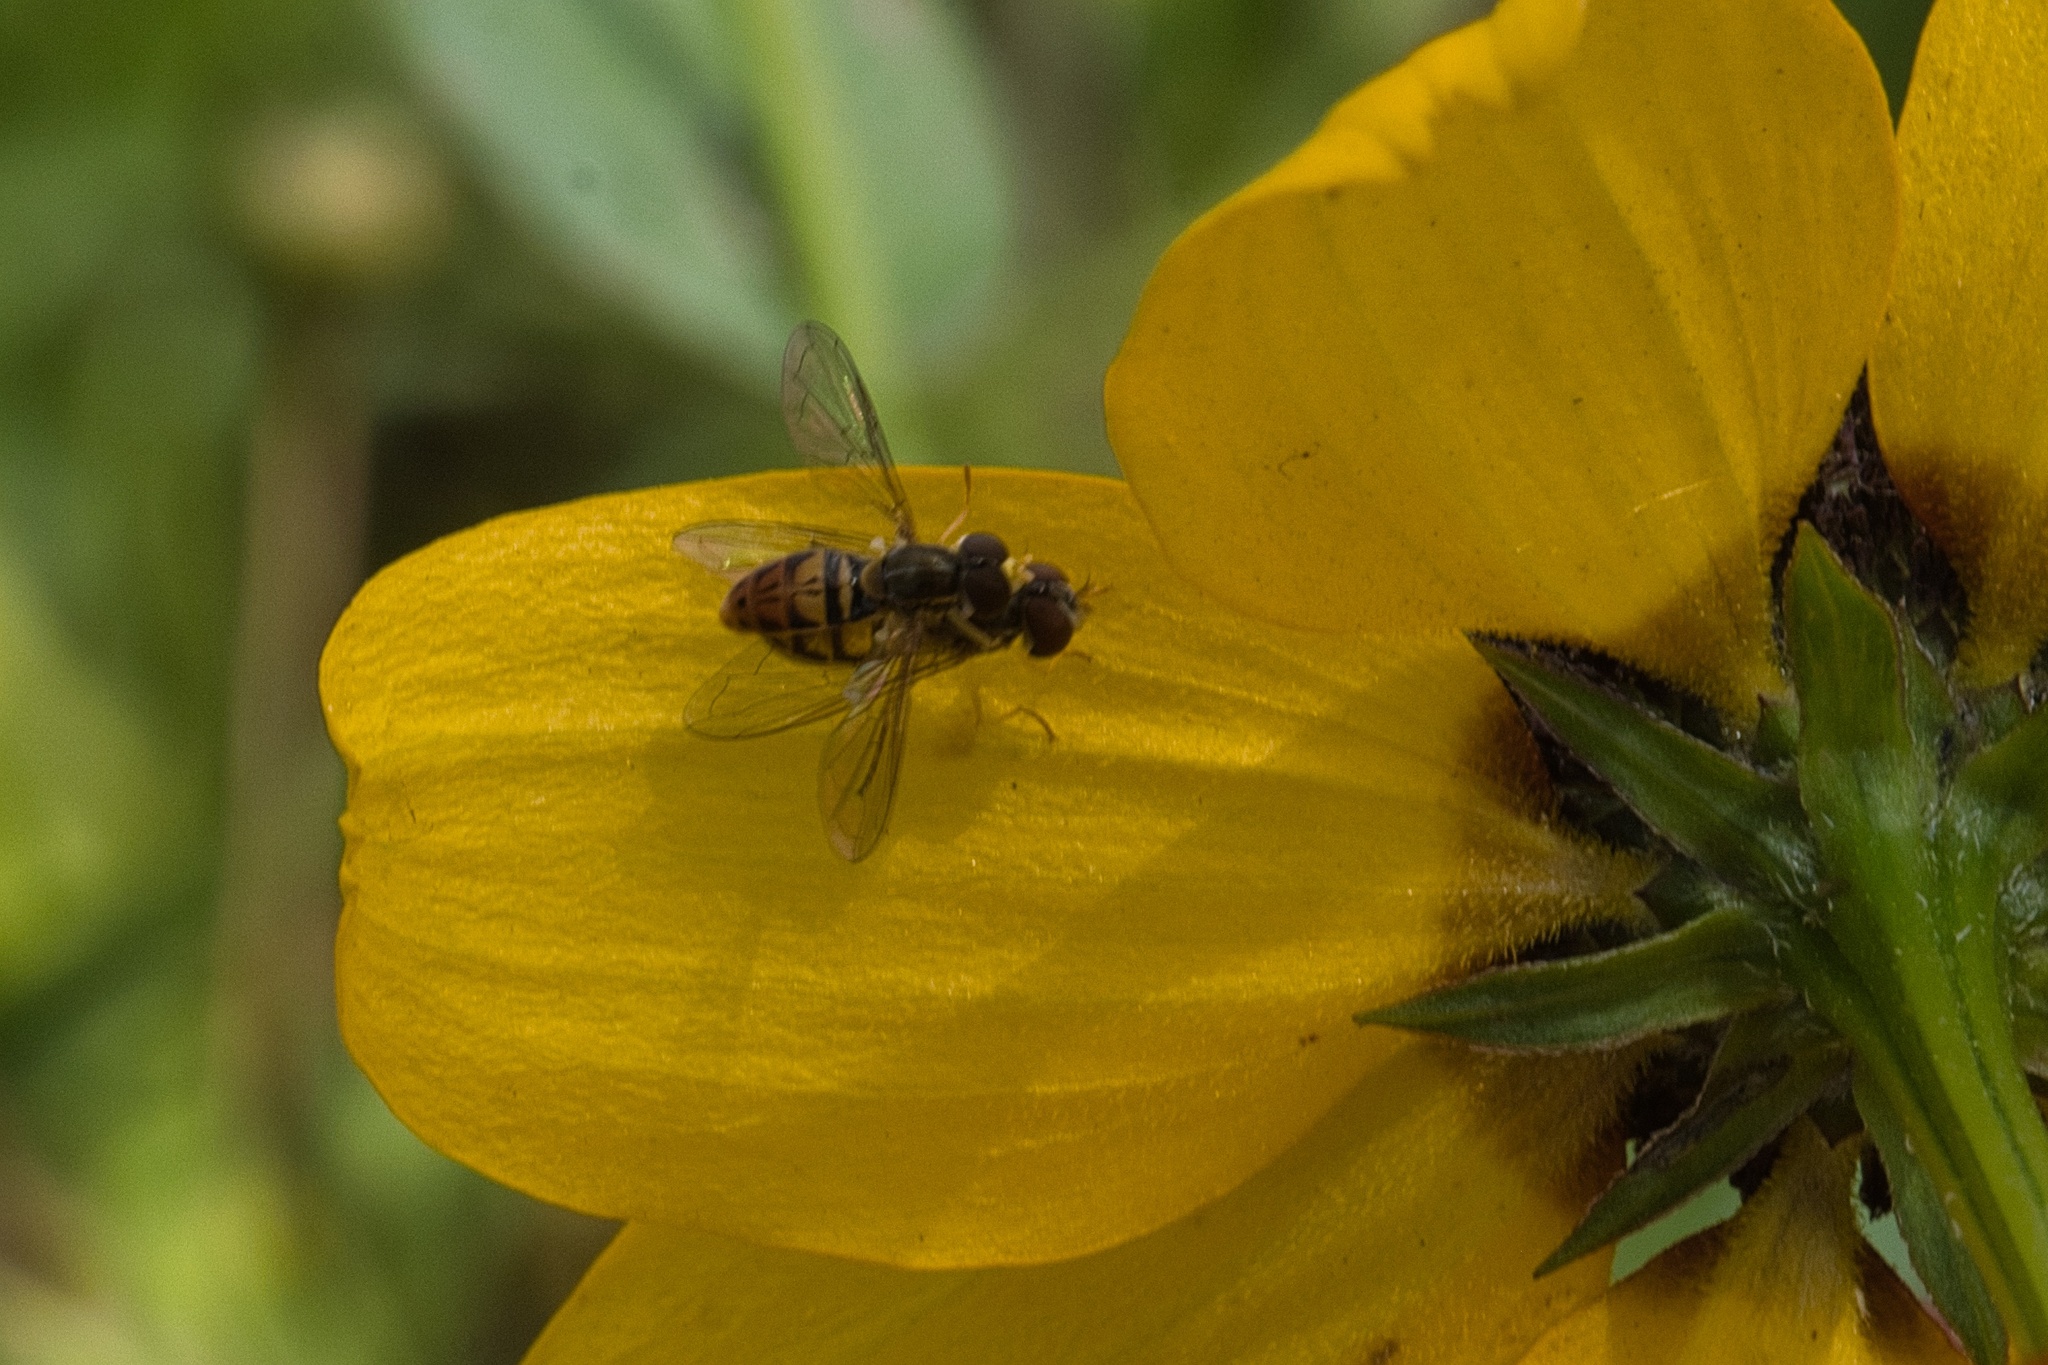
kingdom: Animalia
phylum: Arthropoda
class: Insecta
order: Diptera
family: Syrphidae
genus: Toxomerus
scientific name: Toxomerus marginatus
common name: Syrphid fly
